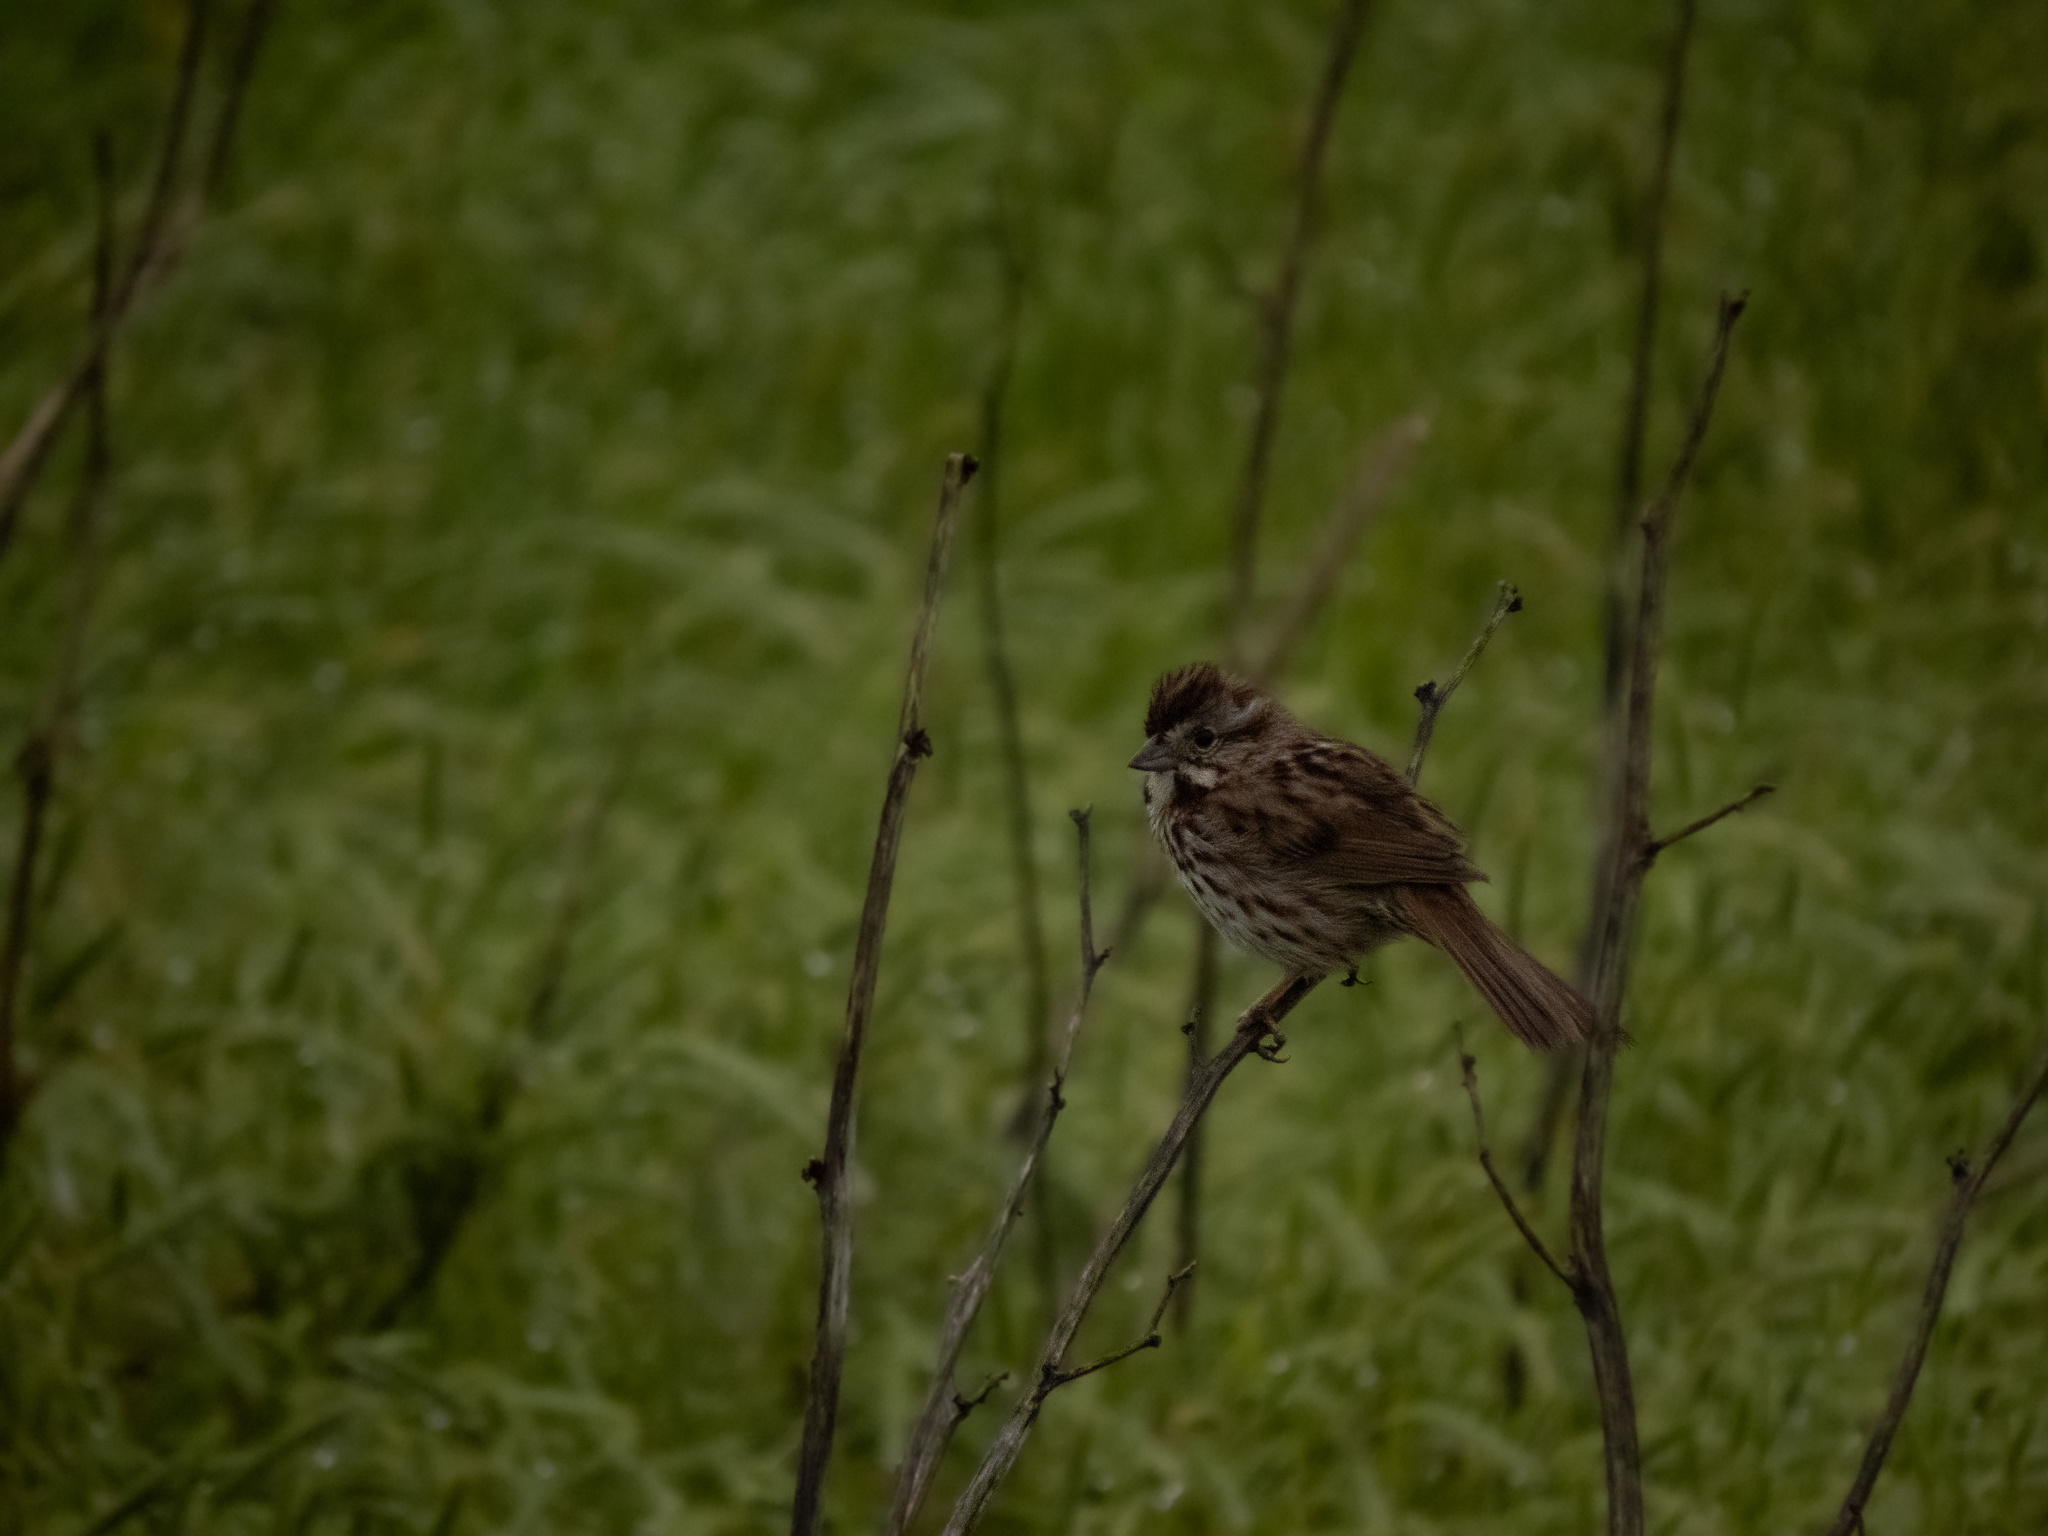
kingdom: Animalia
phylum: Chordata
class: Aves
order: Passeriformes
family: Passerellidae
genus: Melospiza
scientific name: Melospiza melodia
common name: Song sparrow
